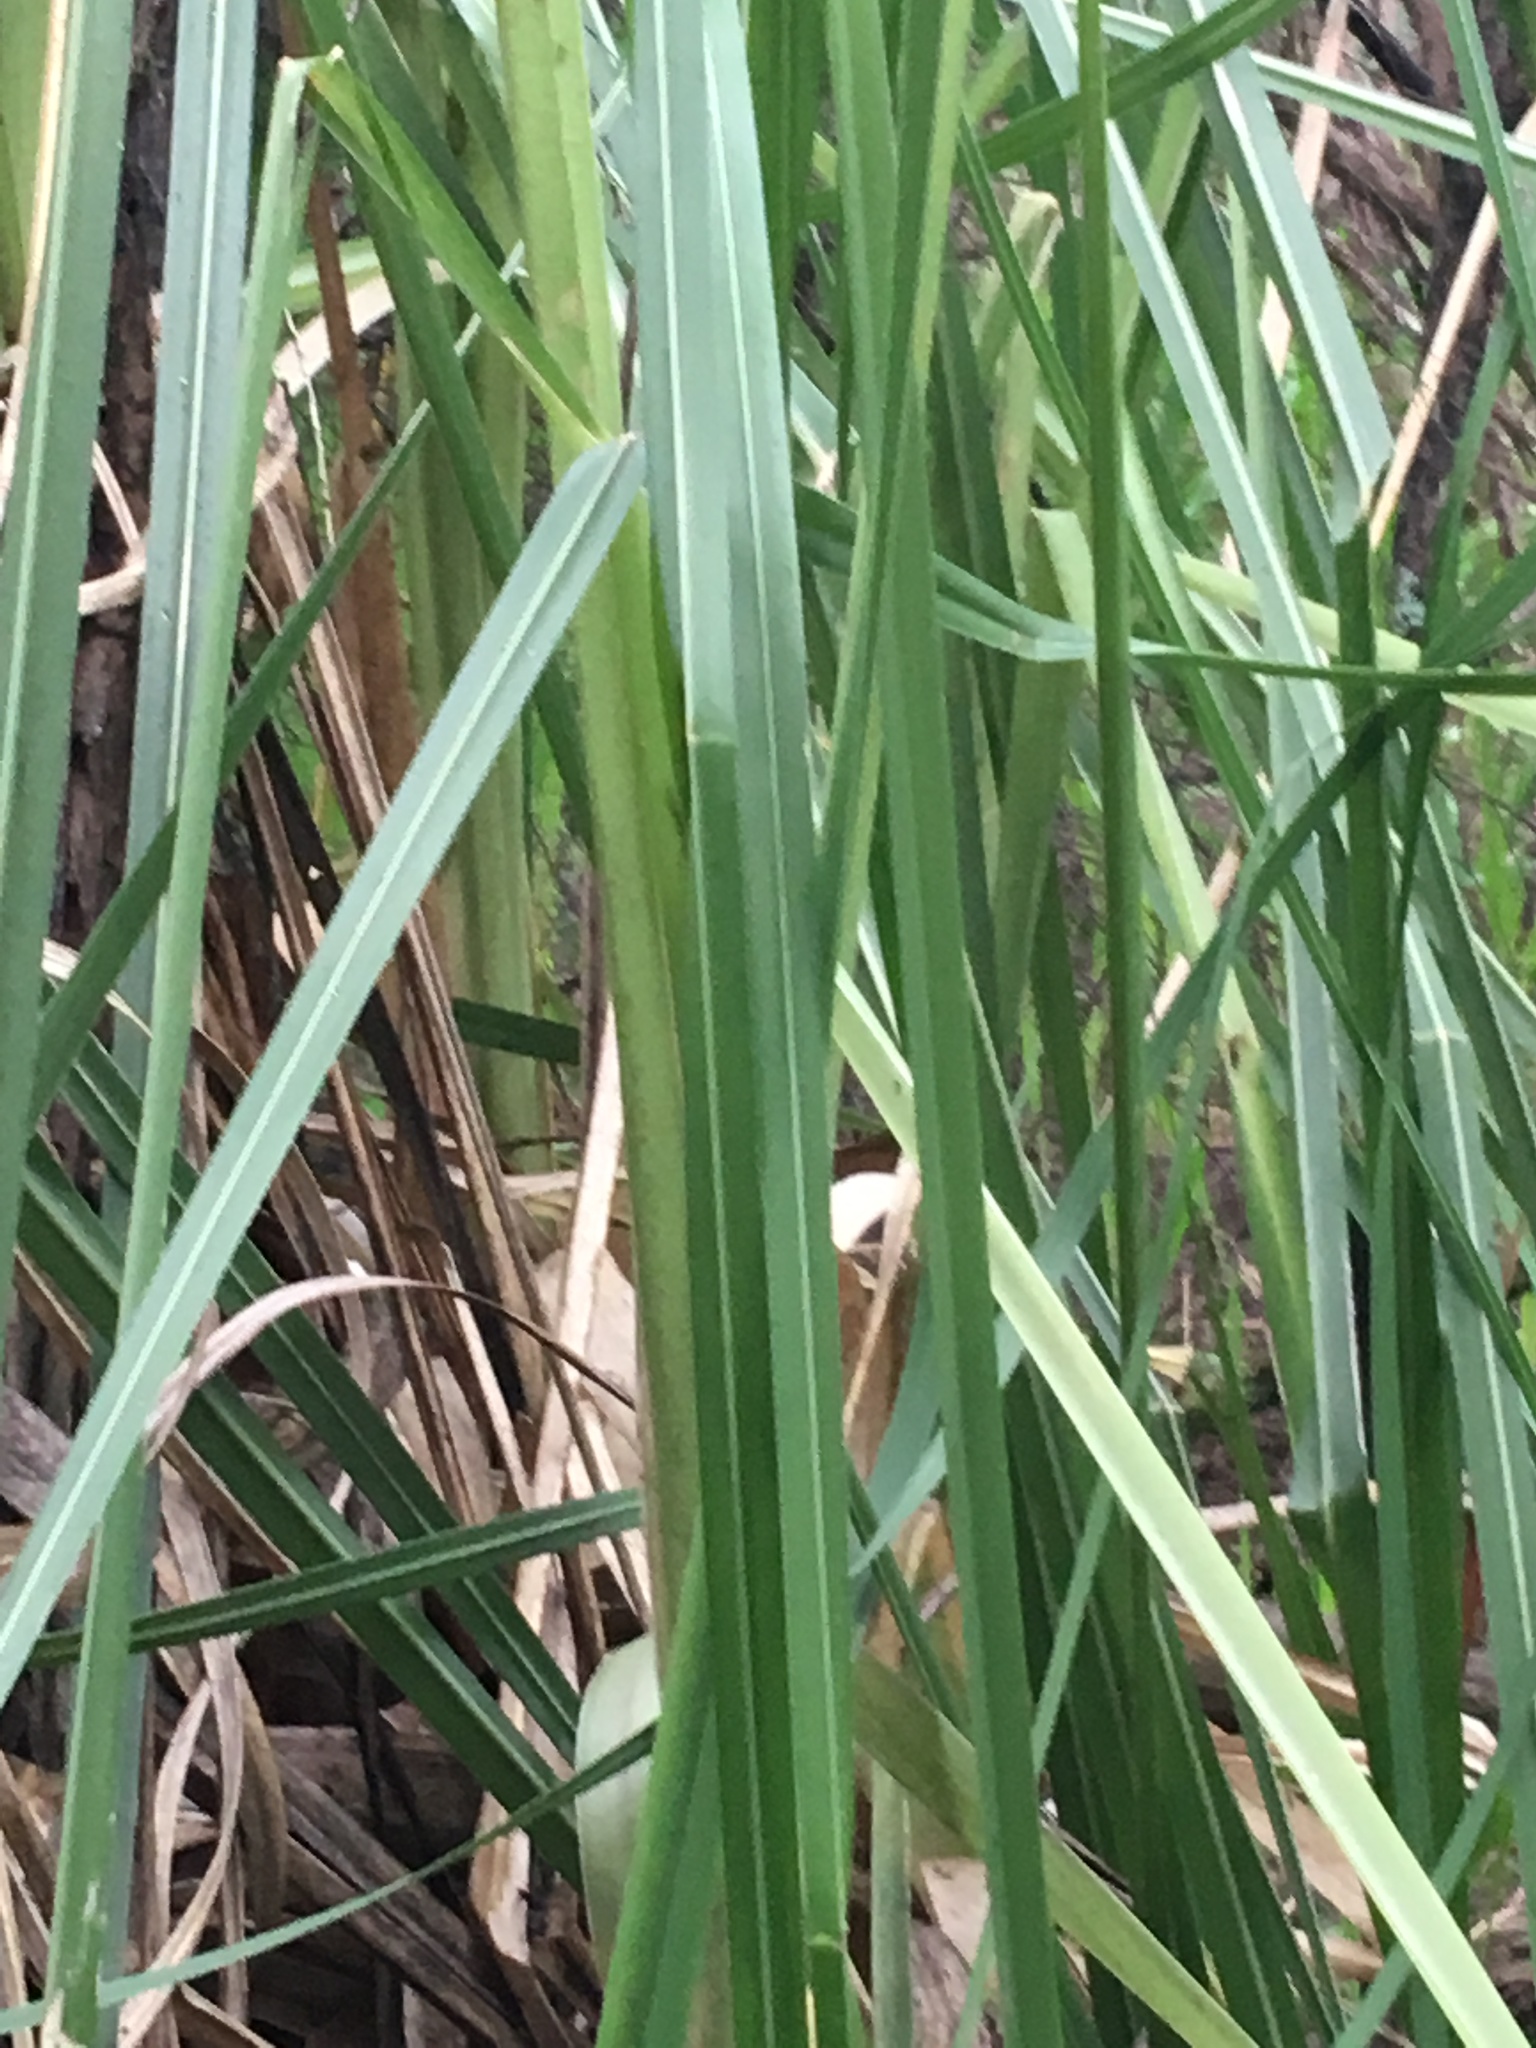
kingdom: Plantae
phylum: Tracheophyta
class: Liliopsida
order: Poales
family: Poaceae
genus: Cortaderia
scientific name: Cortaderia selloana
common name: Uruguayan pampas grass
